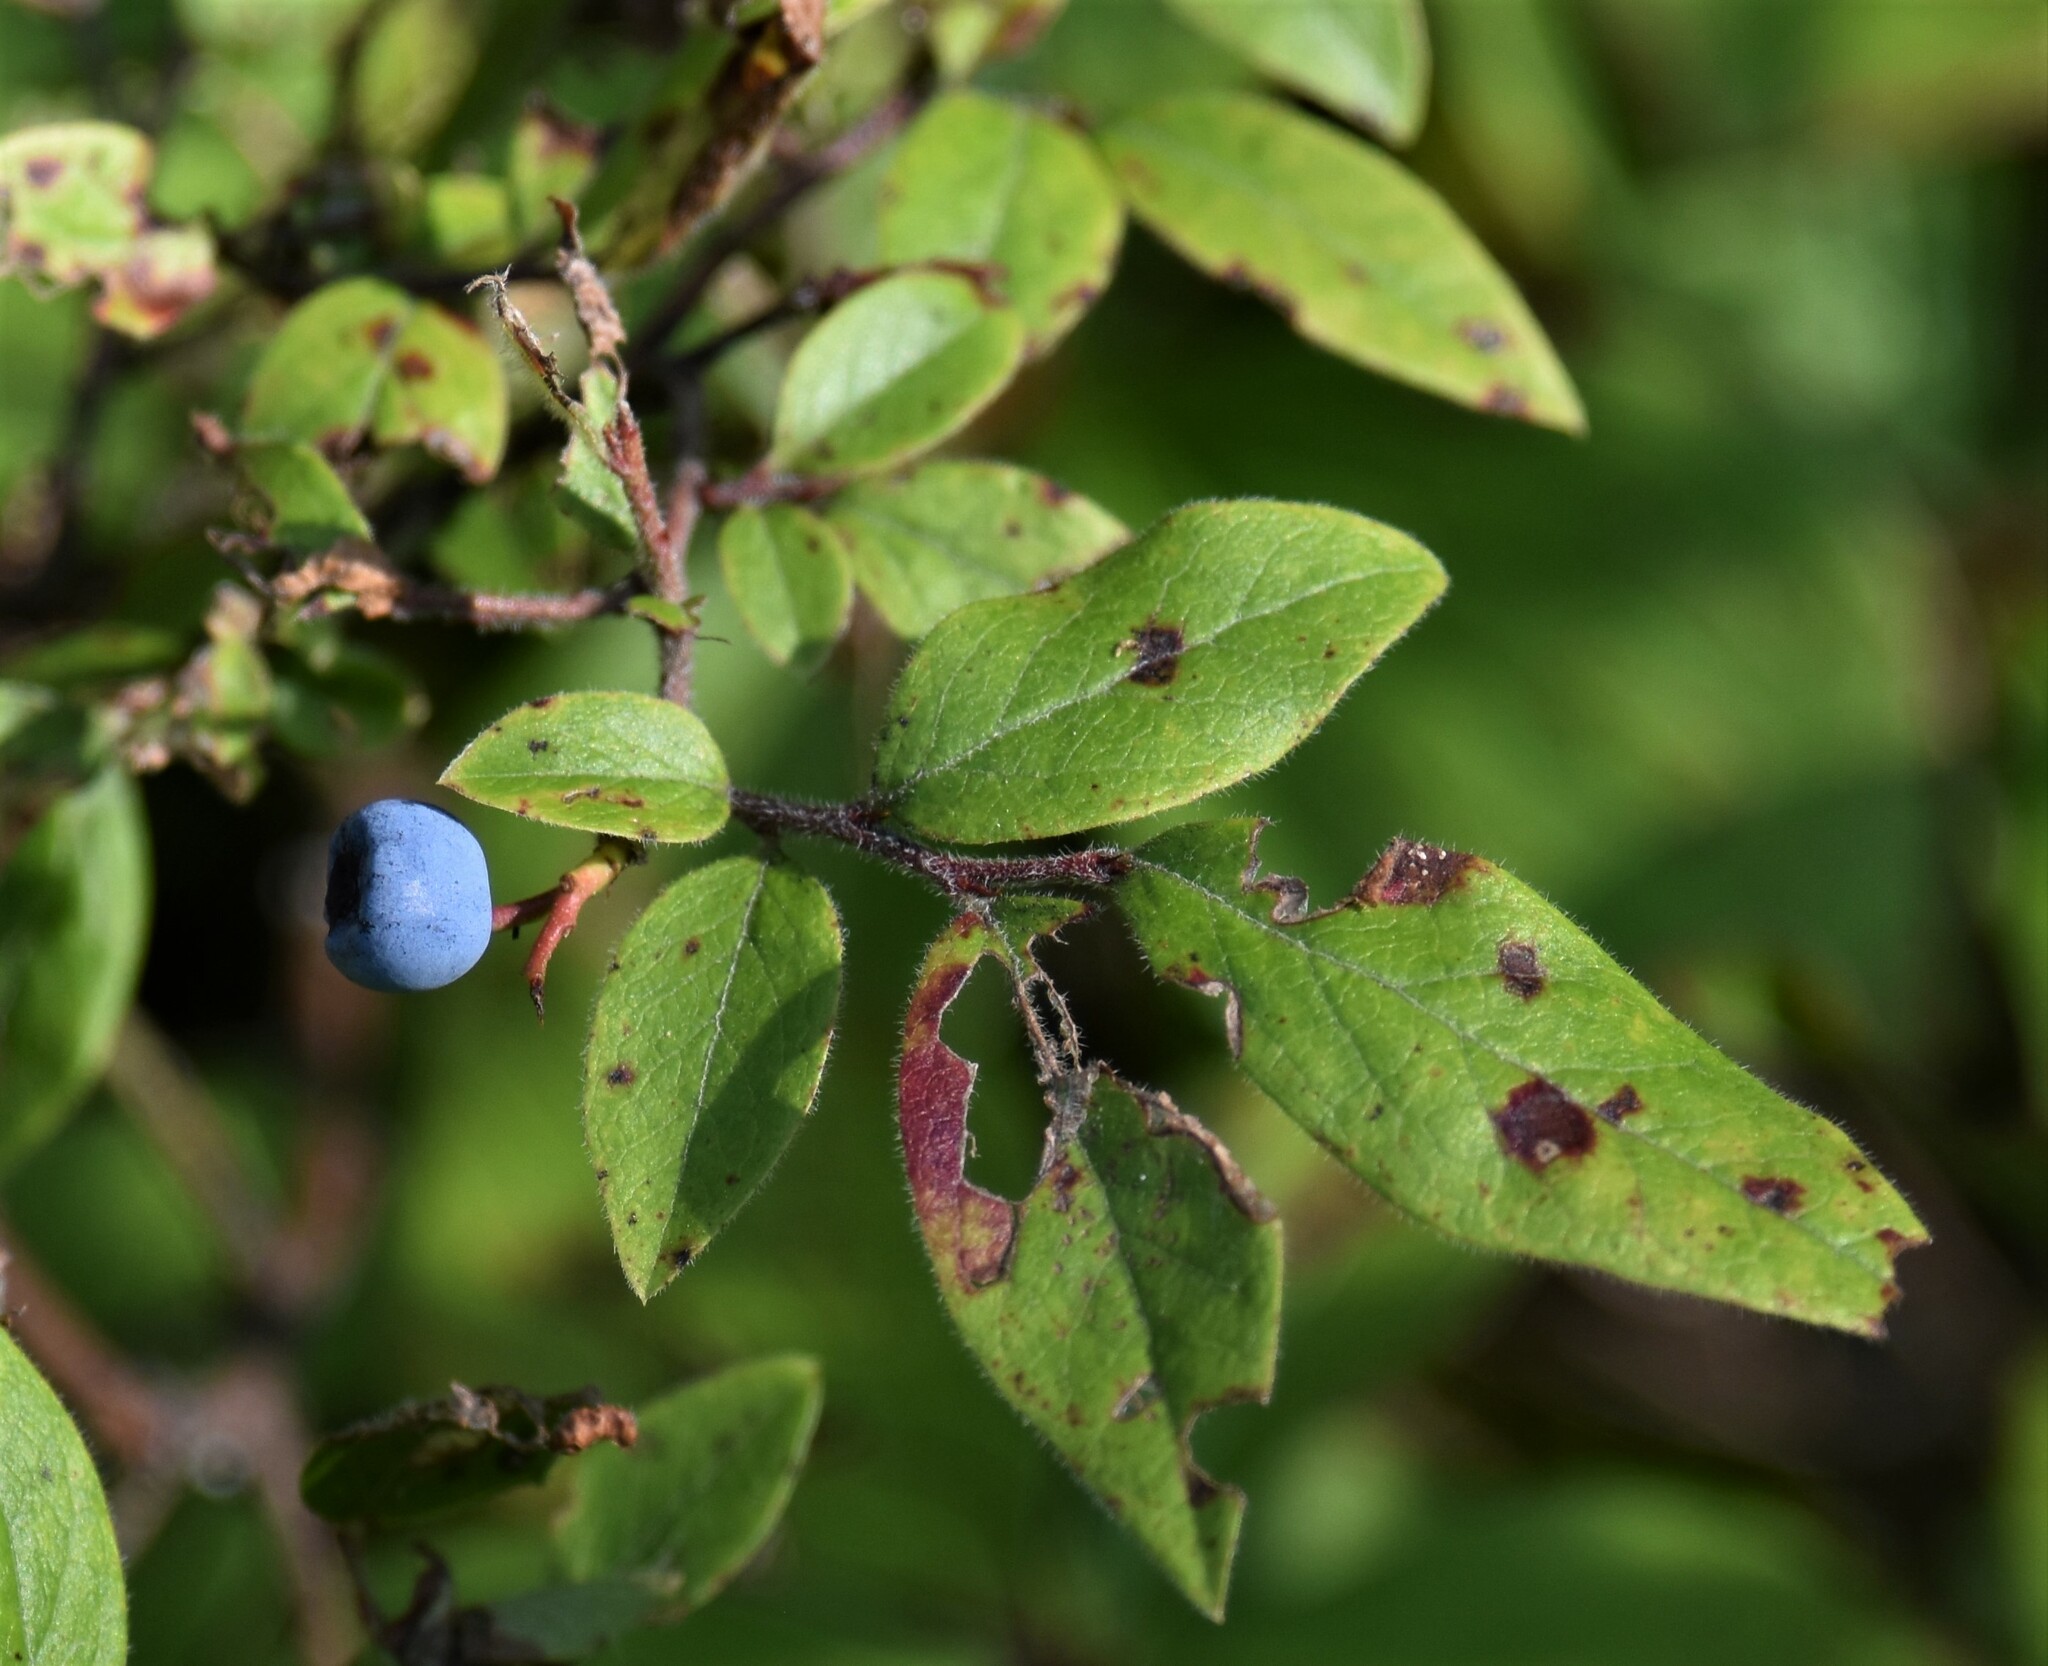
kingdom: Plantae
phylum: Tracheophyta
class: Magnoliopsida
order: Ericales
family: Ericaceae
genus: Vaccinium
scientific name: Vaccinium myrtilloides
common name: Canada blueberry
